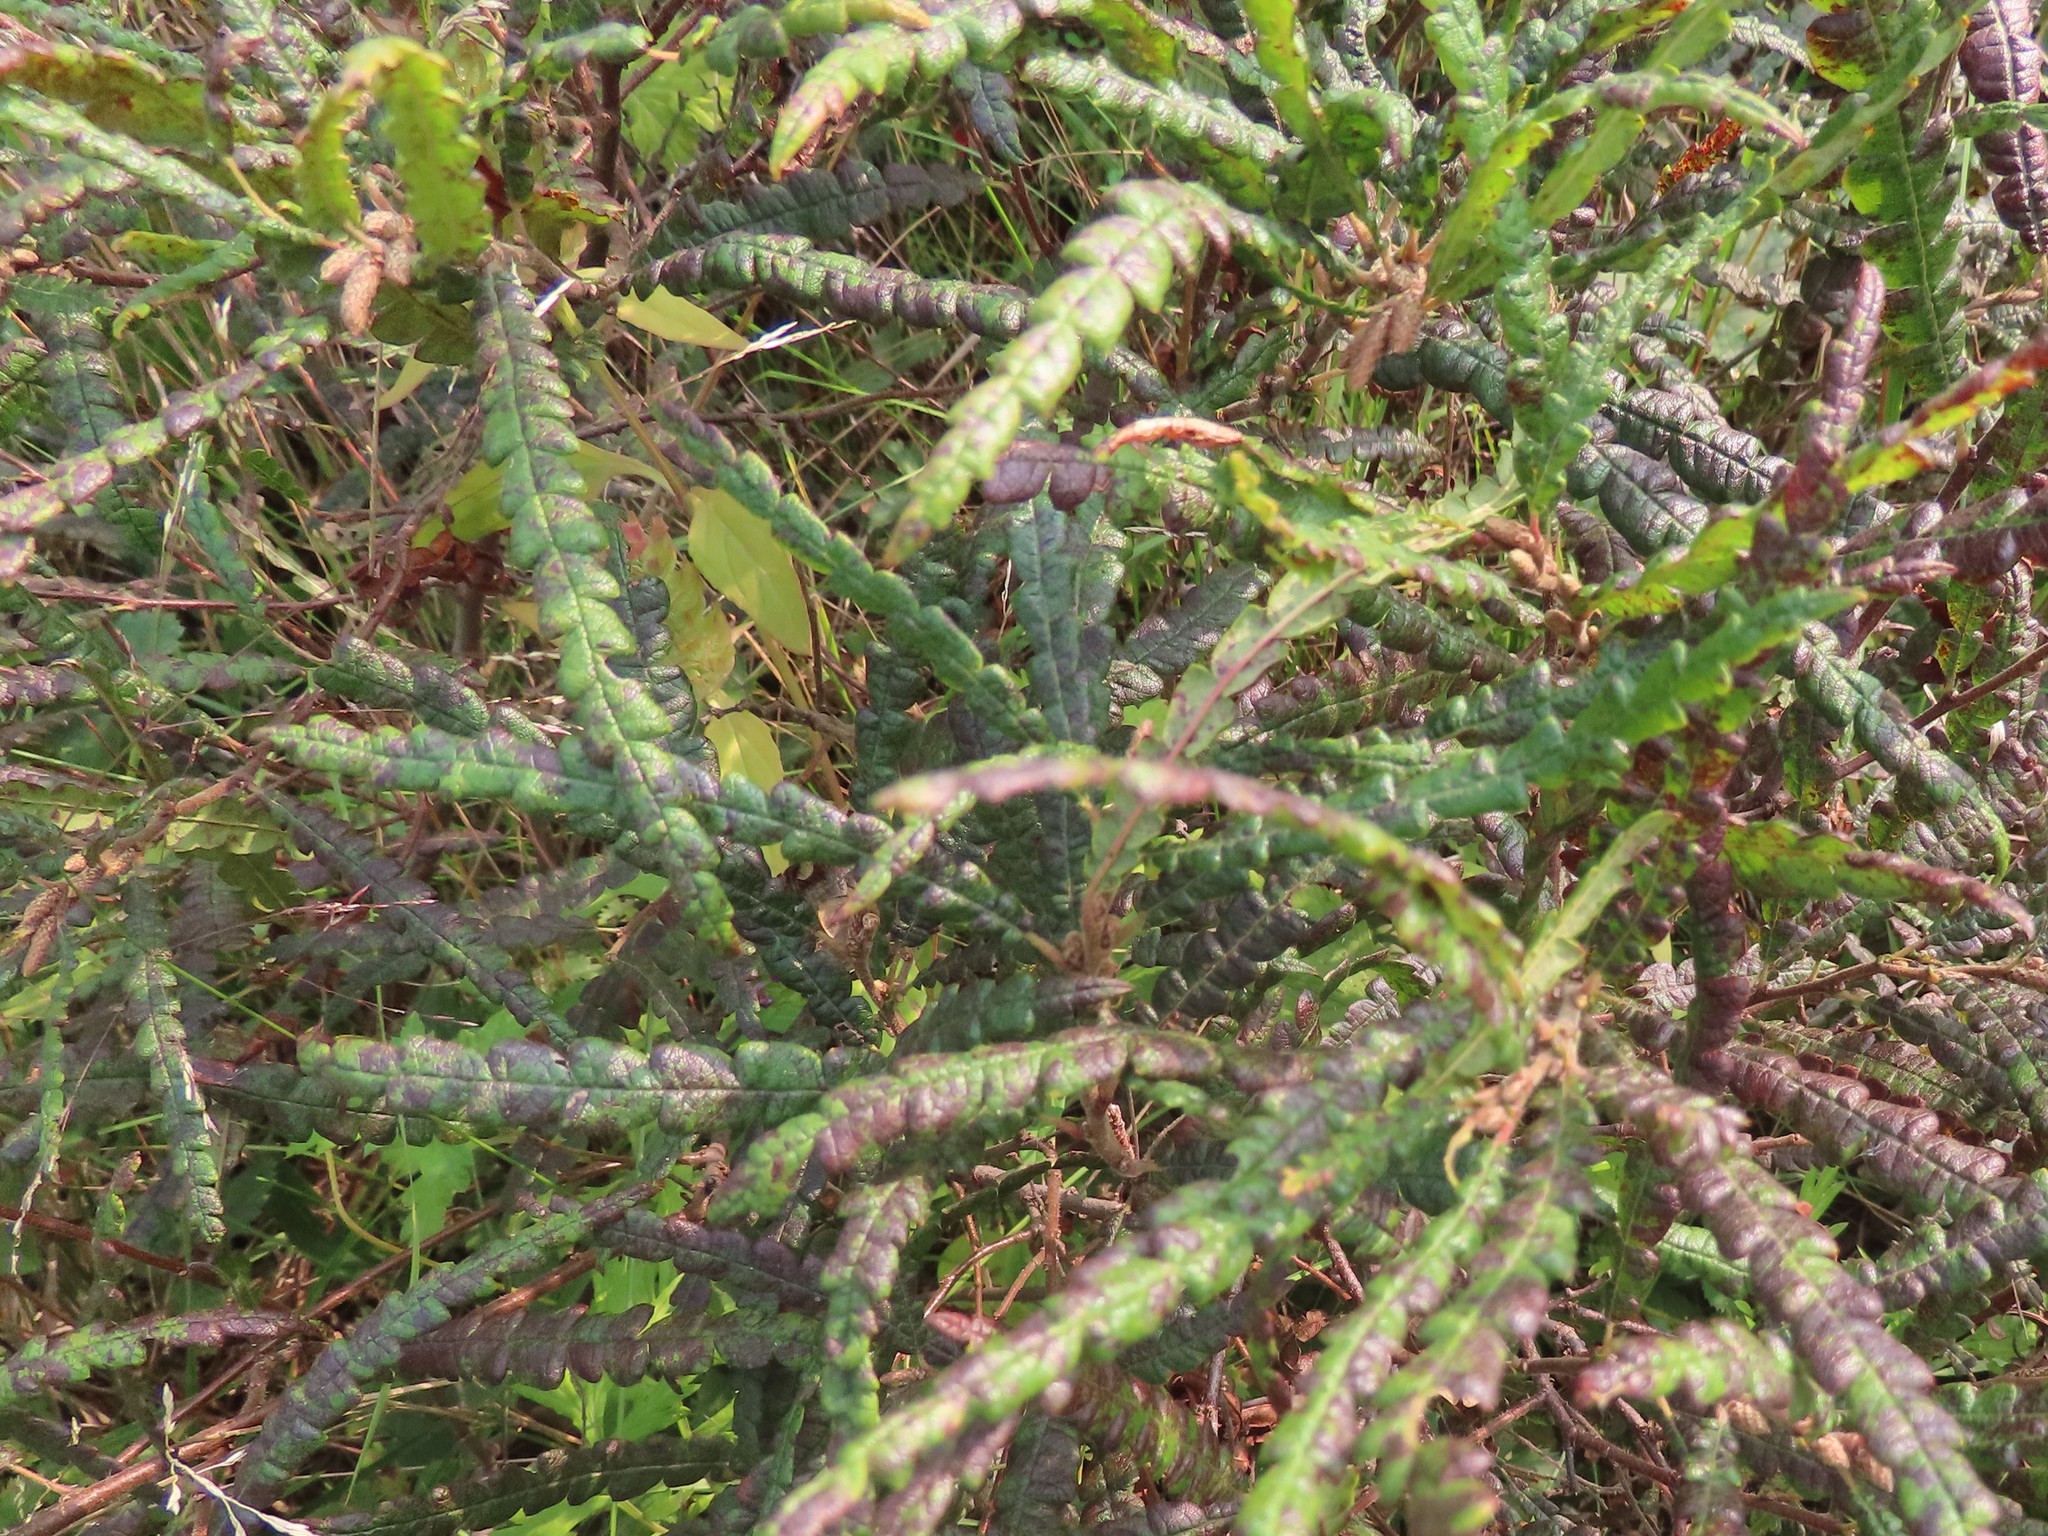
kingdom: Plantae
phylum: Tracheophyta
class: Magnoliopsida
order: Fagales
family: Myricaceae
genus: Comptonia
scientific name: Comptonia peregrina
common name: Sweet-fern
